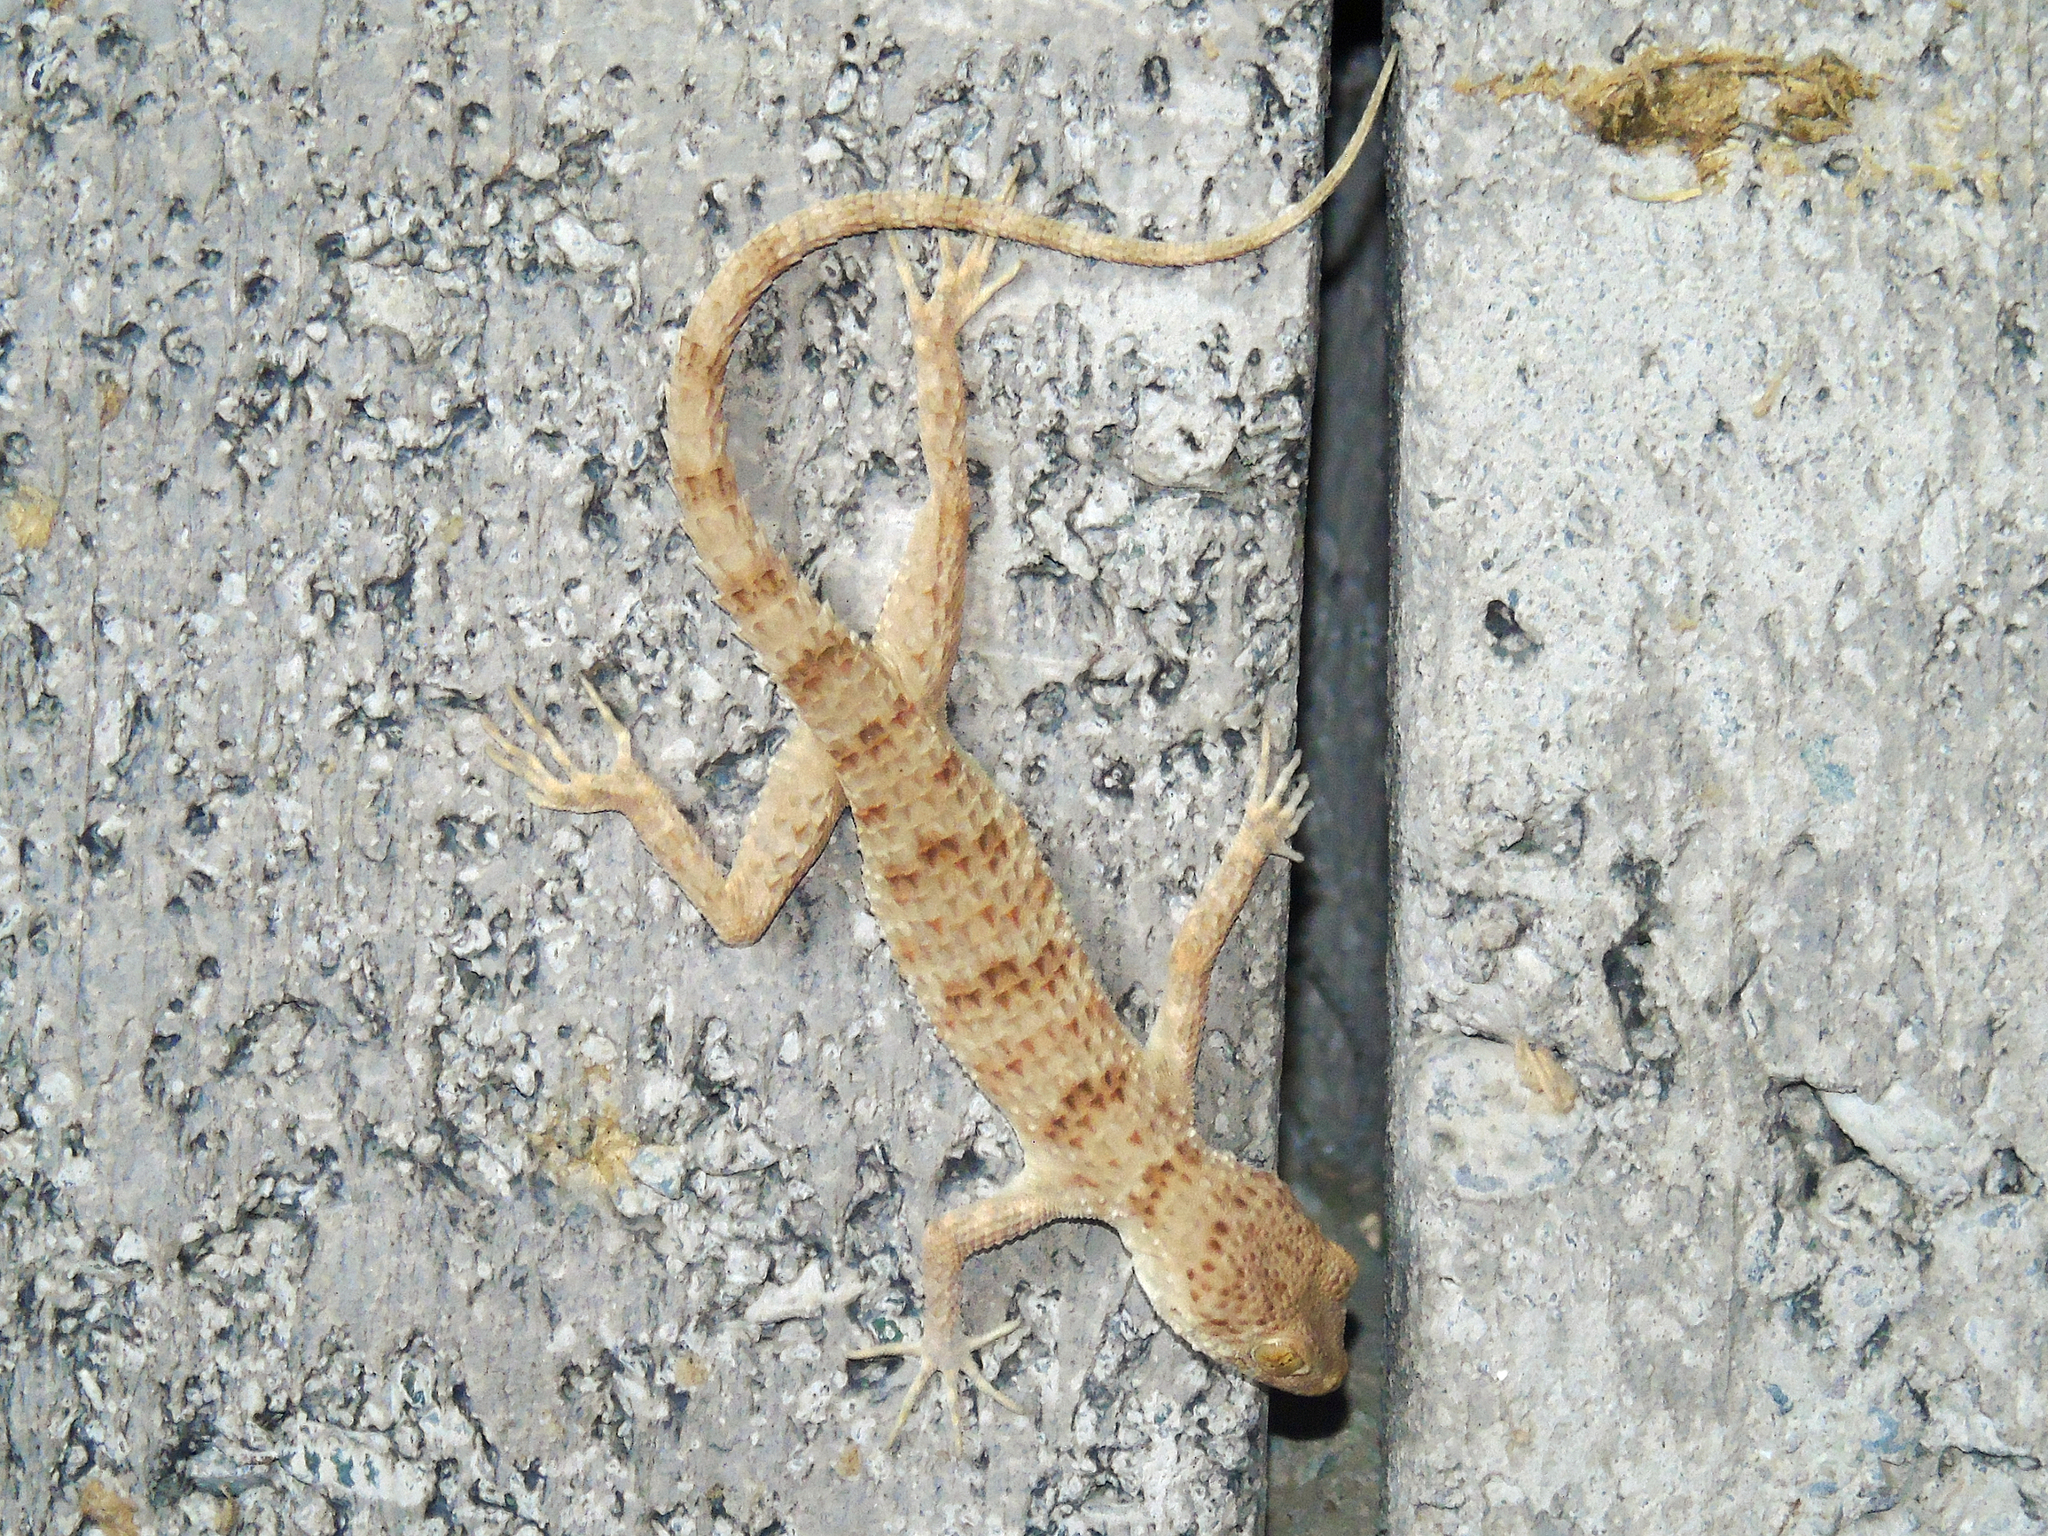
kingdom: Animalia
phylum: Chordata
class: Squamata
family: Gekkonidae
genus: Tenuidactylus
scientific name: Tenuidactylus fedtschenkoi
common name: Turkestan thin-toed gecko
